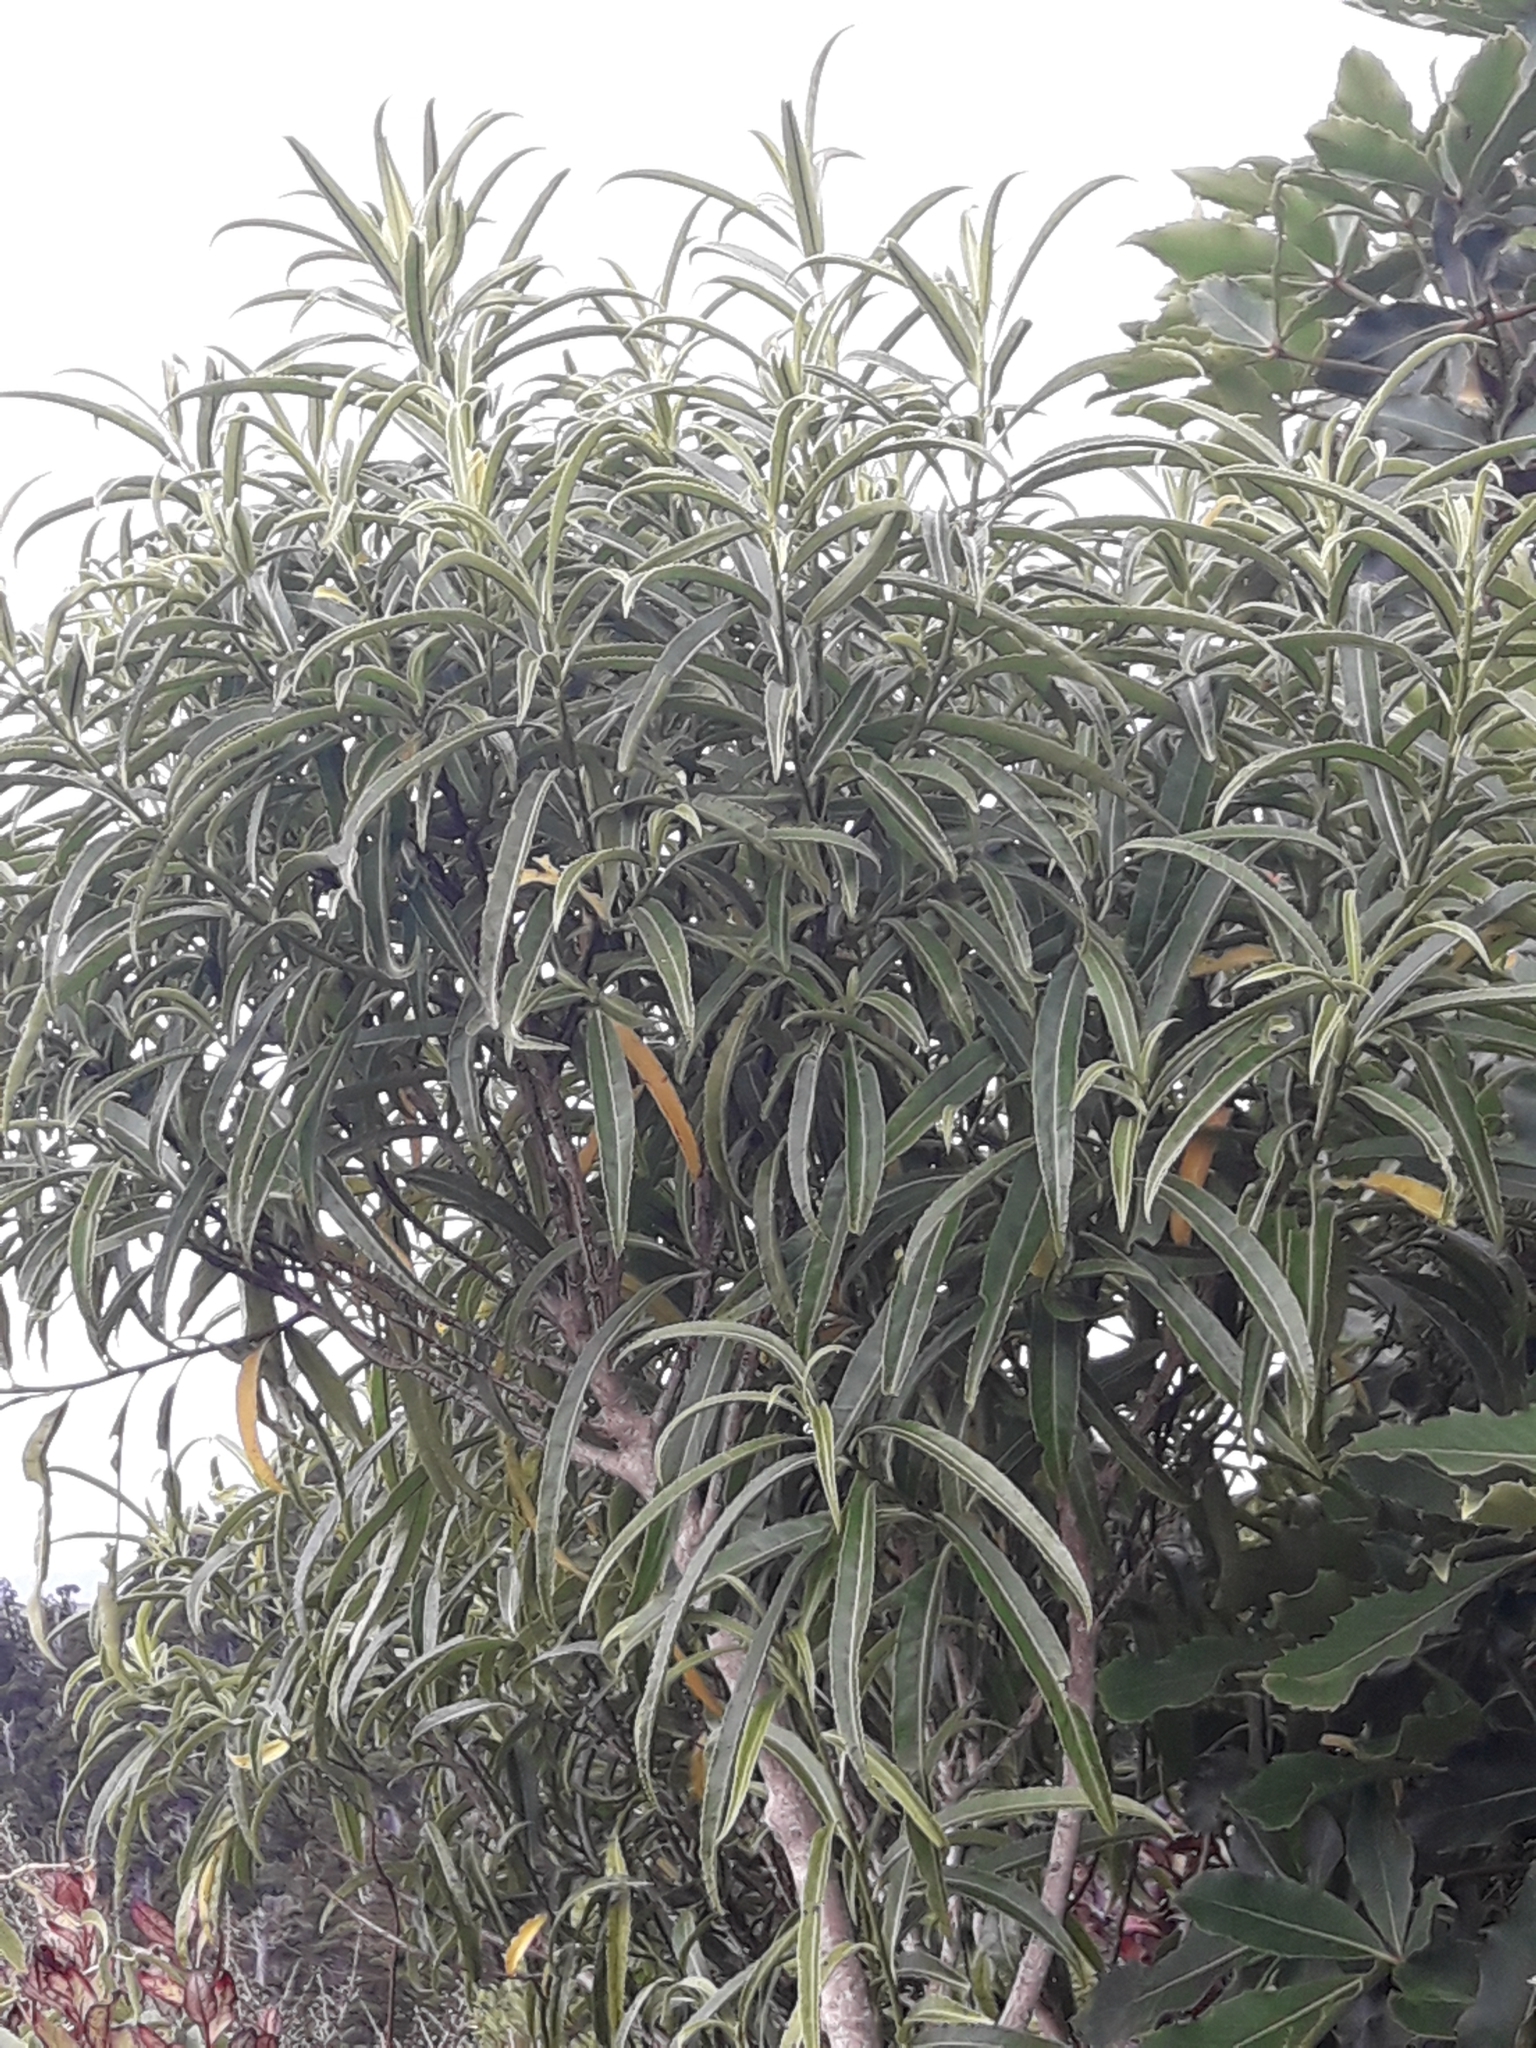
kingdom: Plantae
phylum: Tracheophyta
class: Magnoliopsida
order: Malpighiales
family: Violaceae
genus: Melicytus
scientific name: Melicytus lanceolatus
